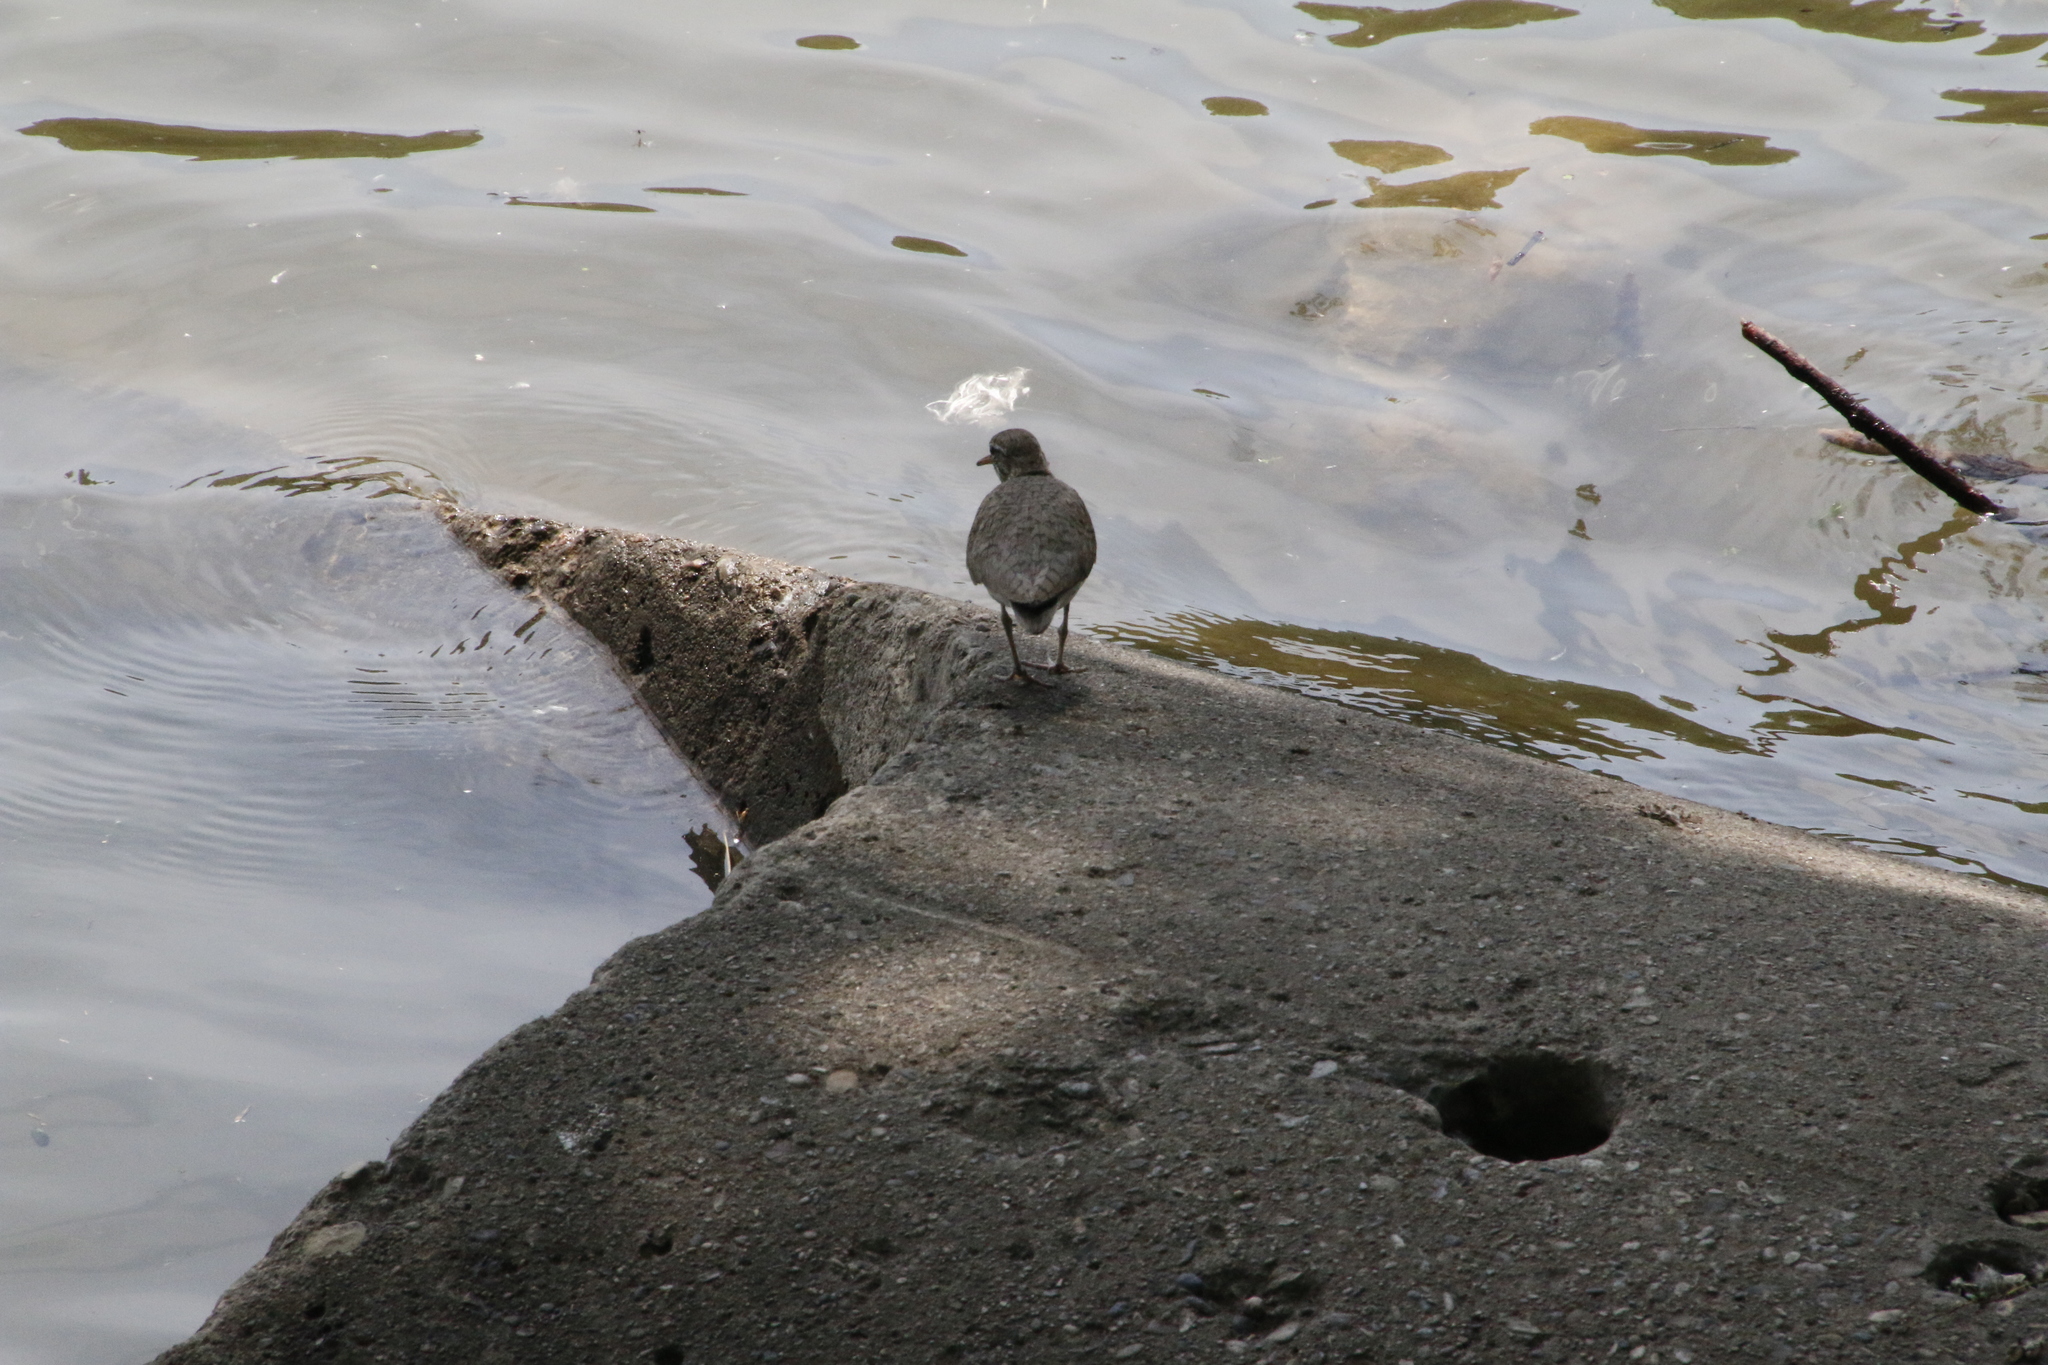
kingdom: Animalia
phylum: Chordata
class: Aves
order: Charadriiformes
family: Scolopacidae
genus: Actitis
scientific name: Actitis macularius
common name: Spotted sandpiper
